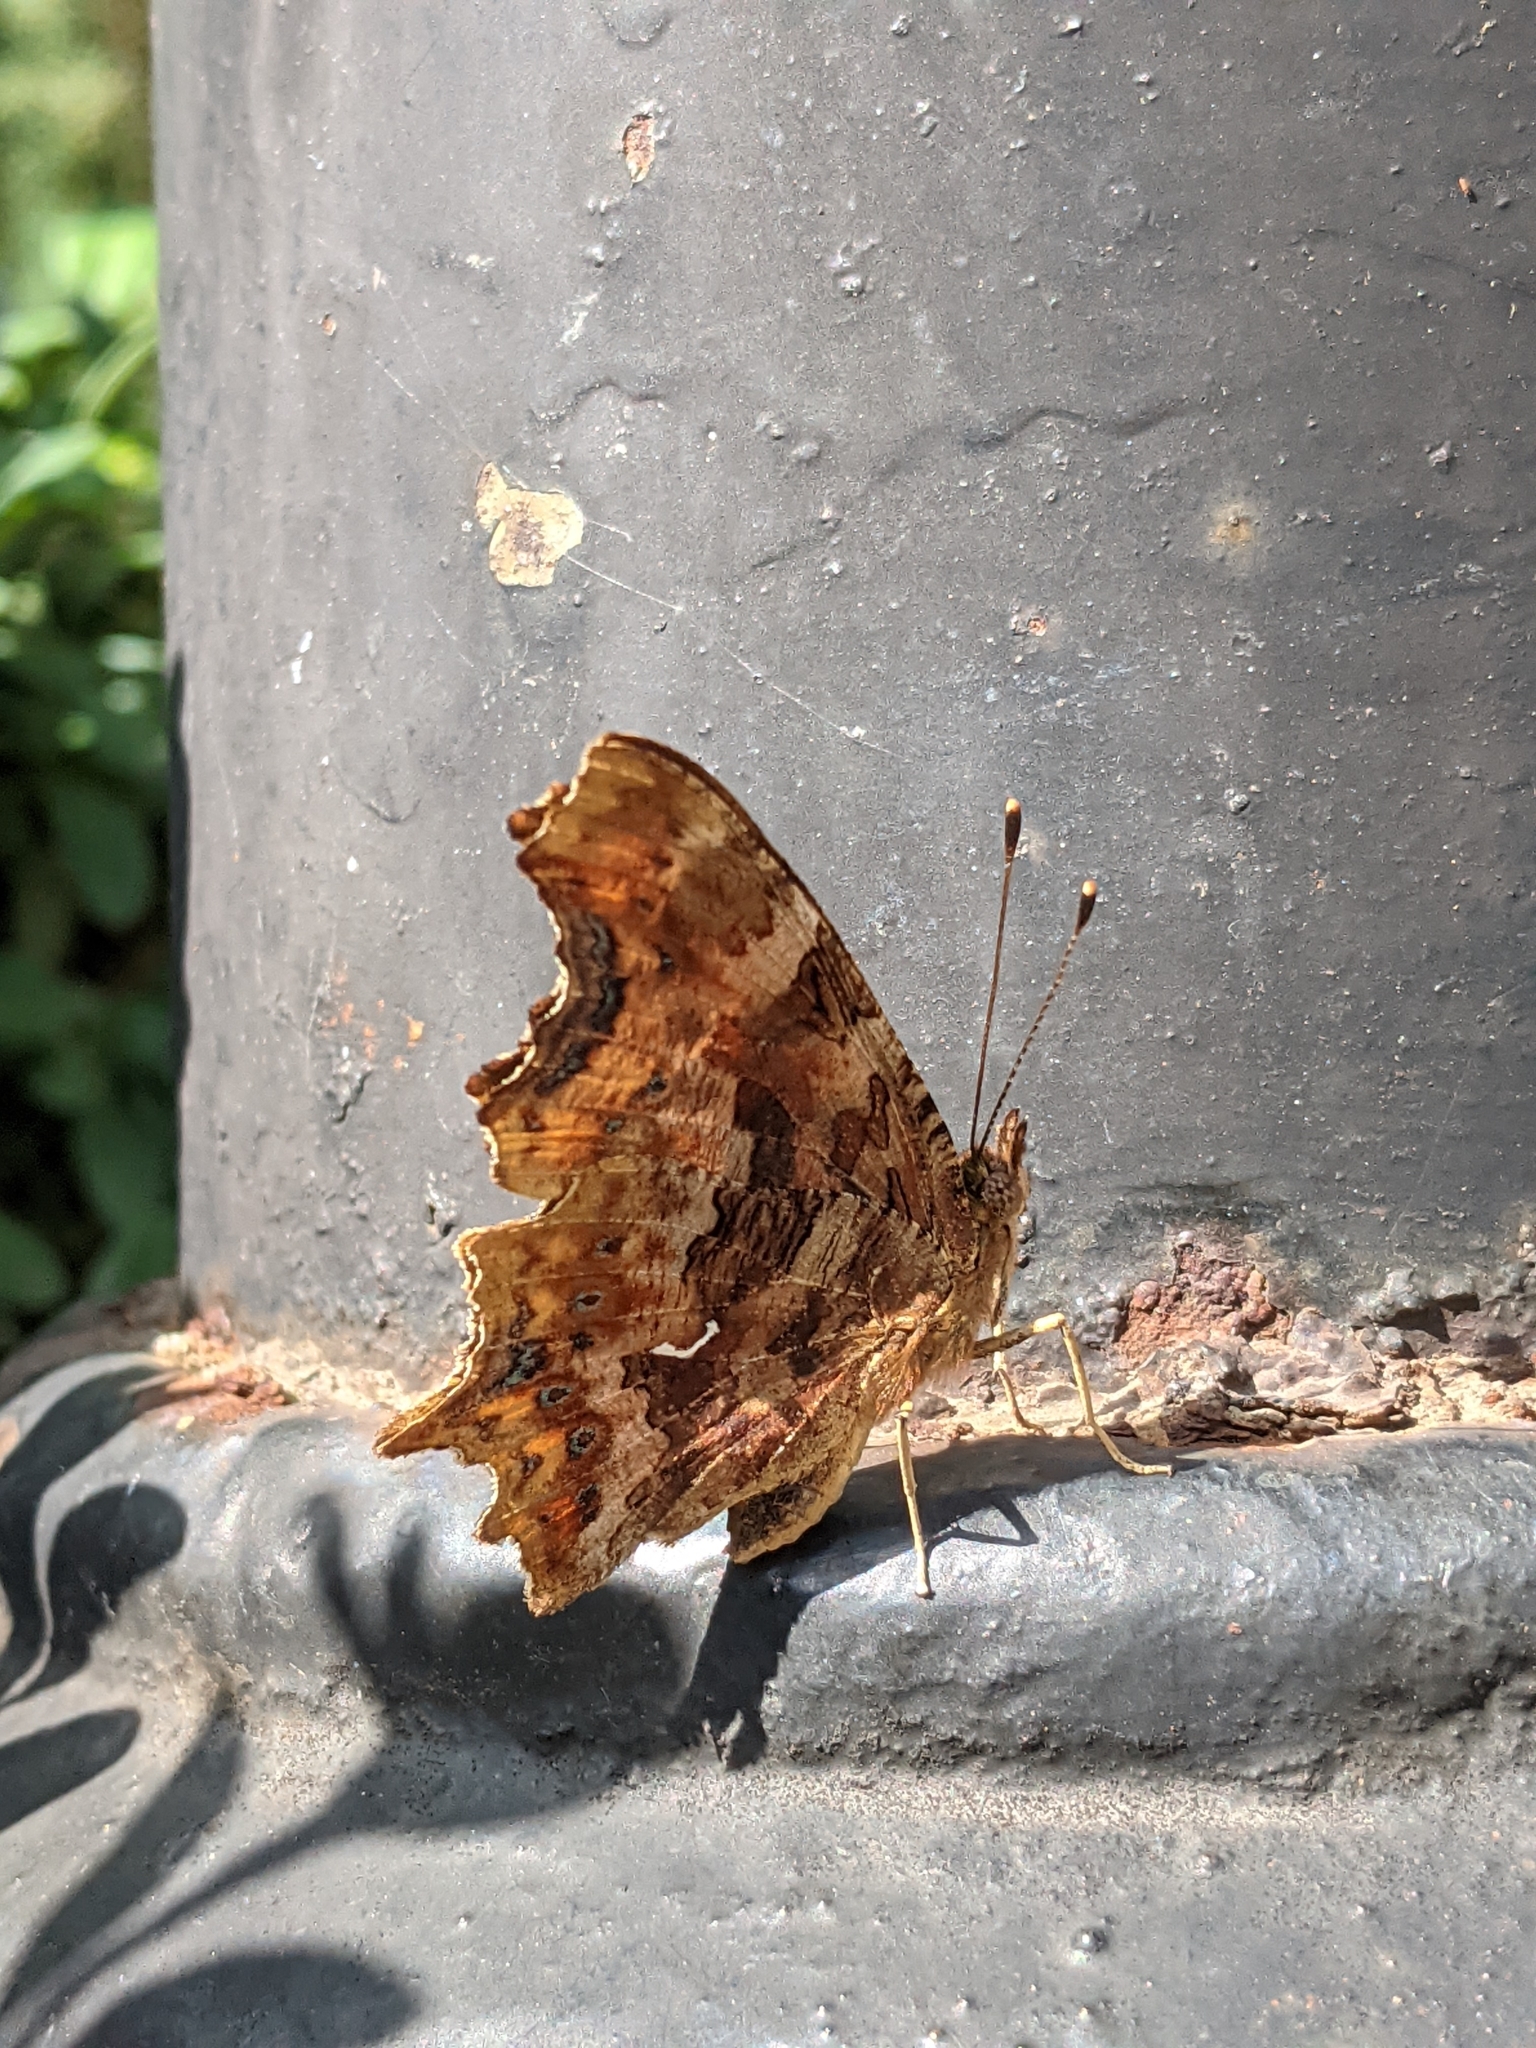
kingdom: Animalia
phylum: Arthropoda
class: Insecta
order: Lepidoptera
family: Nymphalidae
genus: Polygonia
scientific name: Polygonia c-album
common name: Comma
